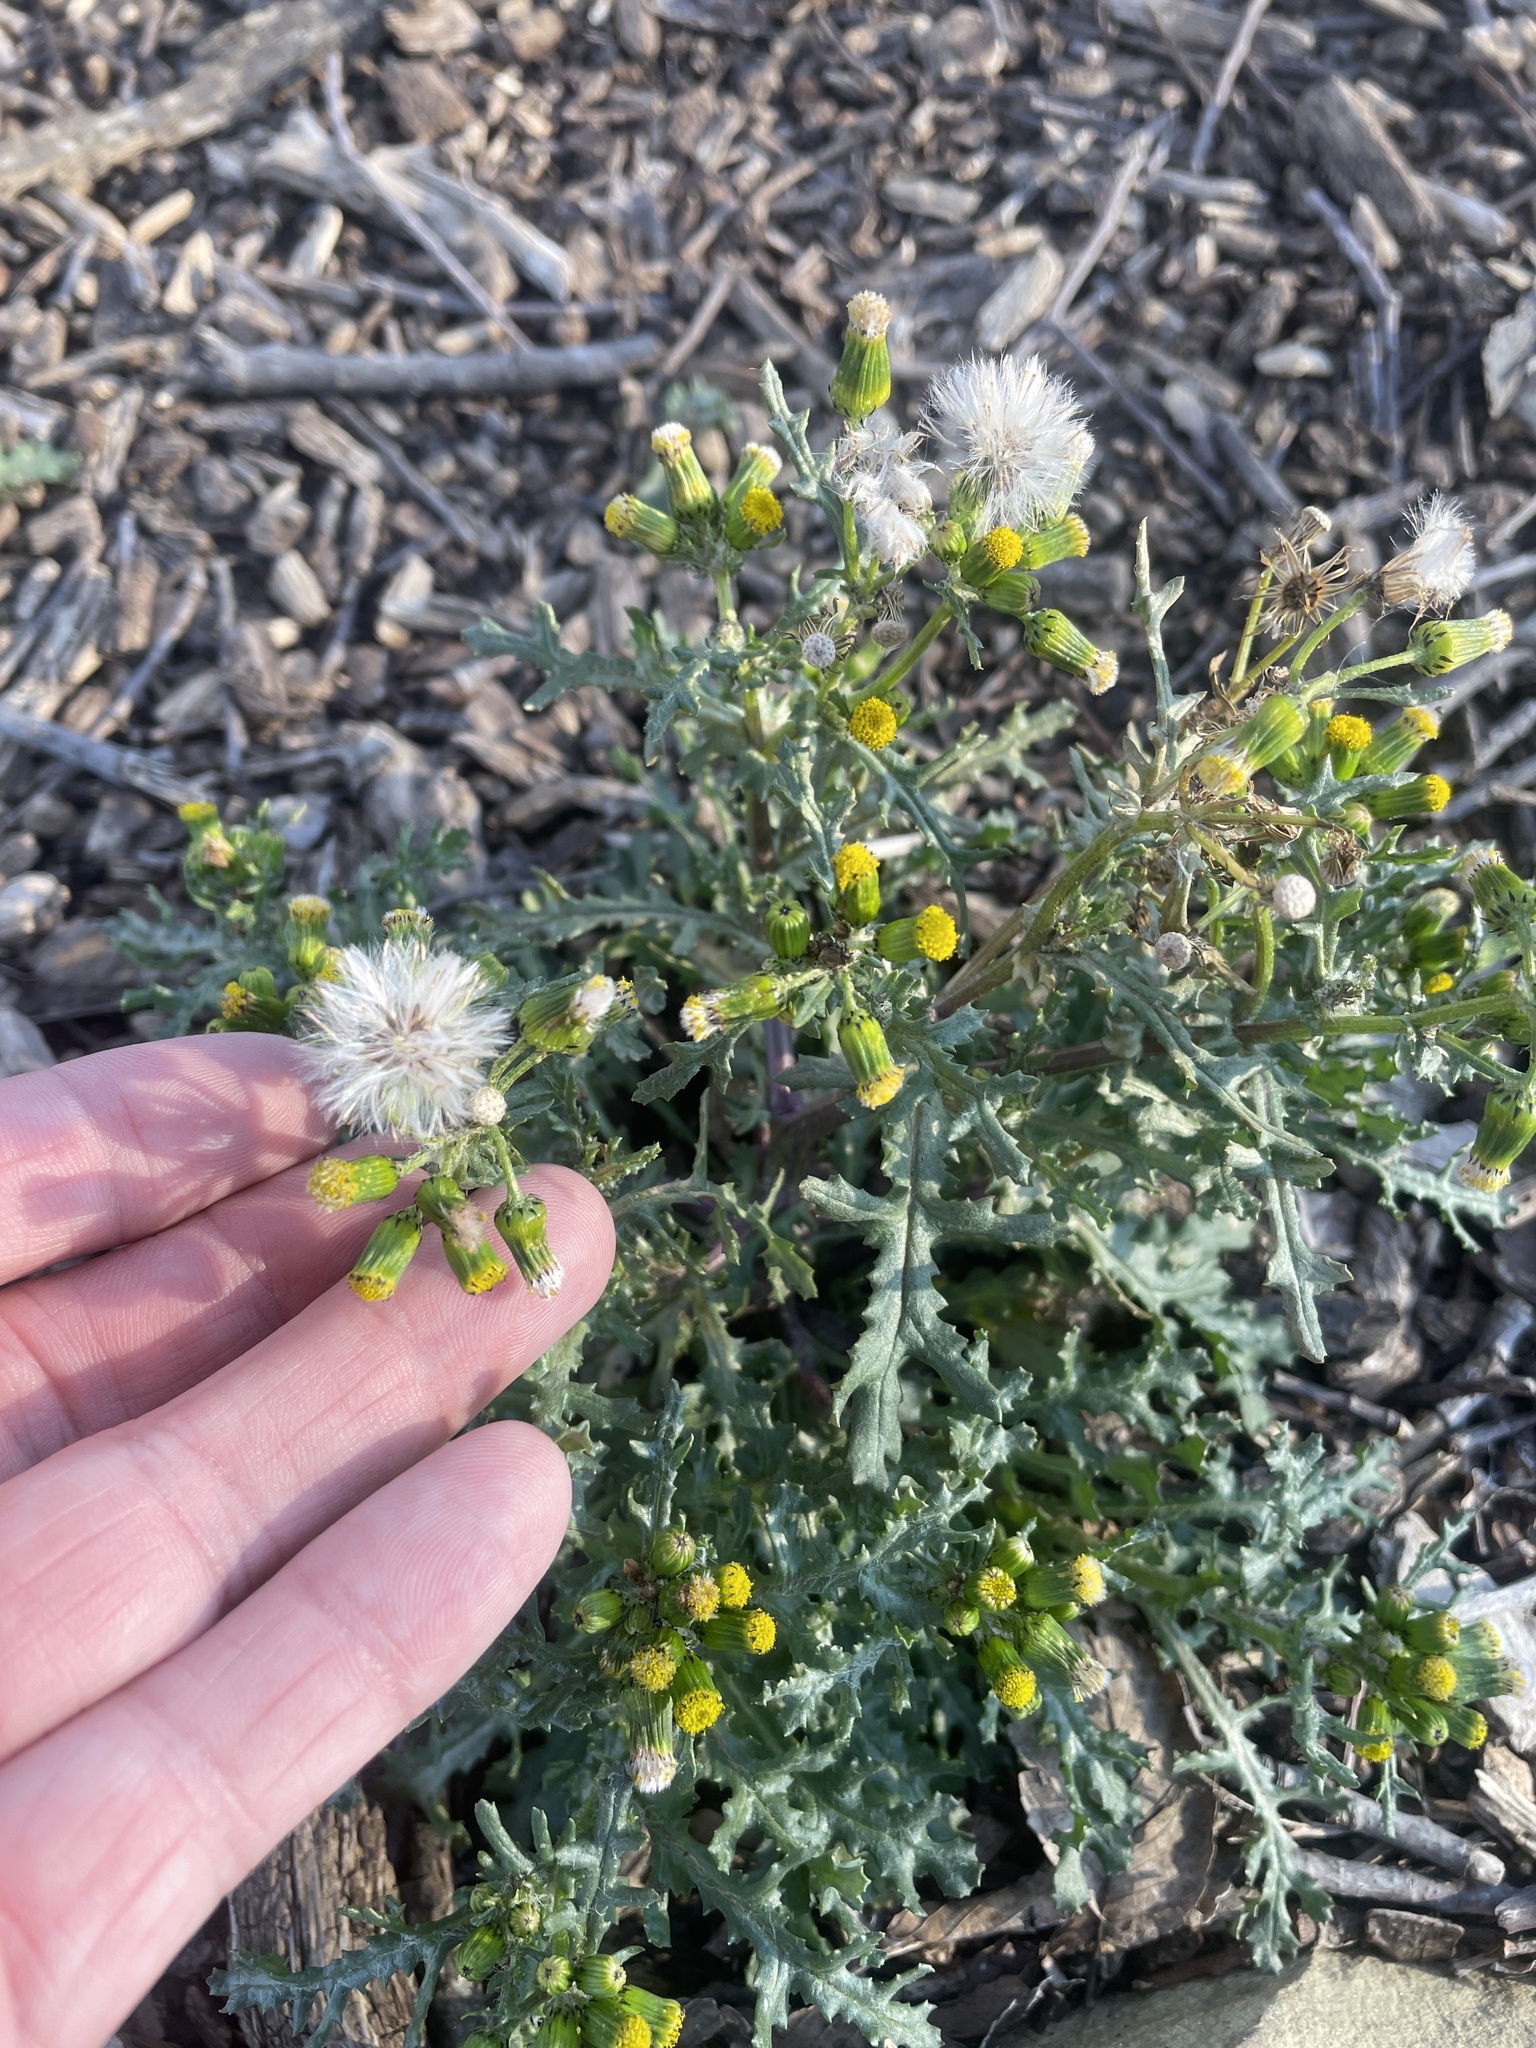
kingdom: Plantae
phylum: Tracheophyta
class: Magnoliopsida
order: Asterales
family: Asteraceae
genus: Senecio
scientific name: Senecio vulgaris
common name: Old-man-in-the-spring
